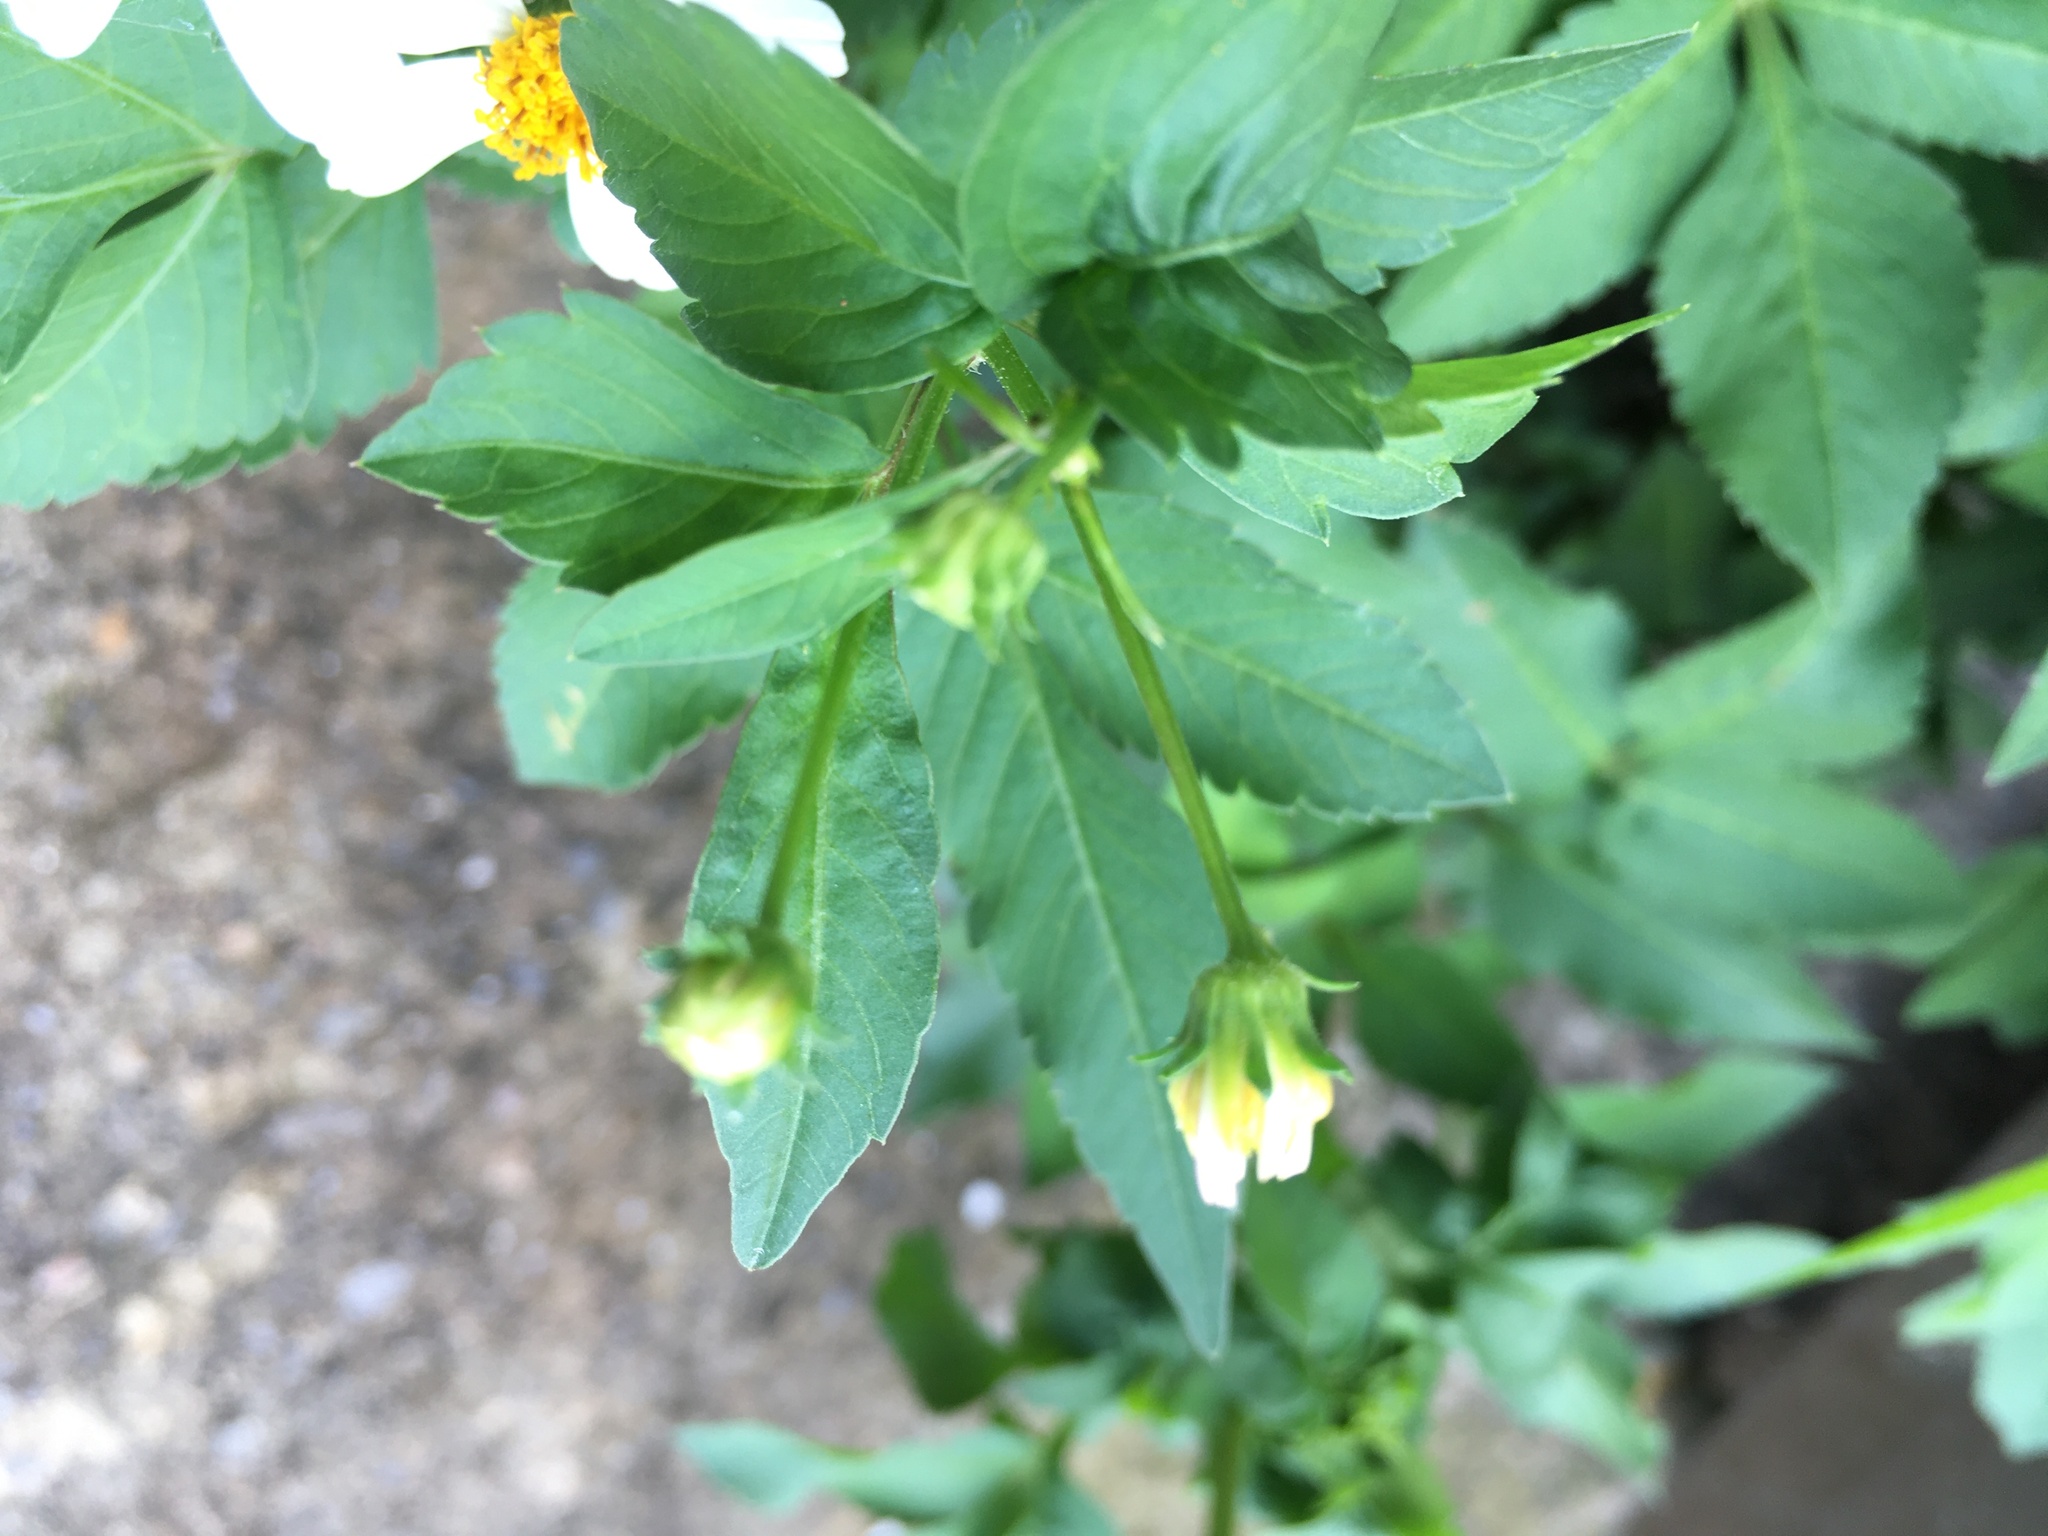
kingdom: Plantae
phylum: Tracheophyta
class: Magnoliopsida
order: Asterales
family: Asteraceae
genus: Bidens
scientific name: Bidens alba
